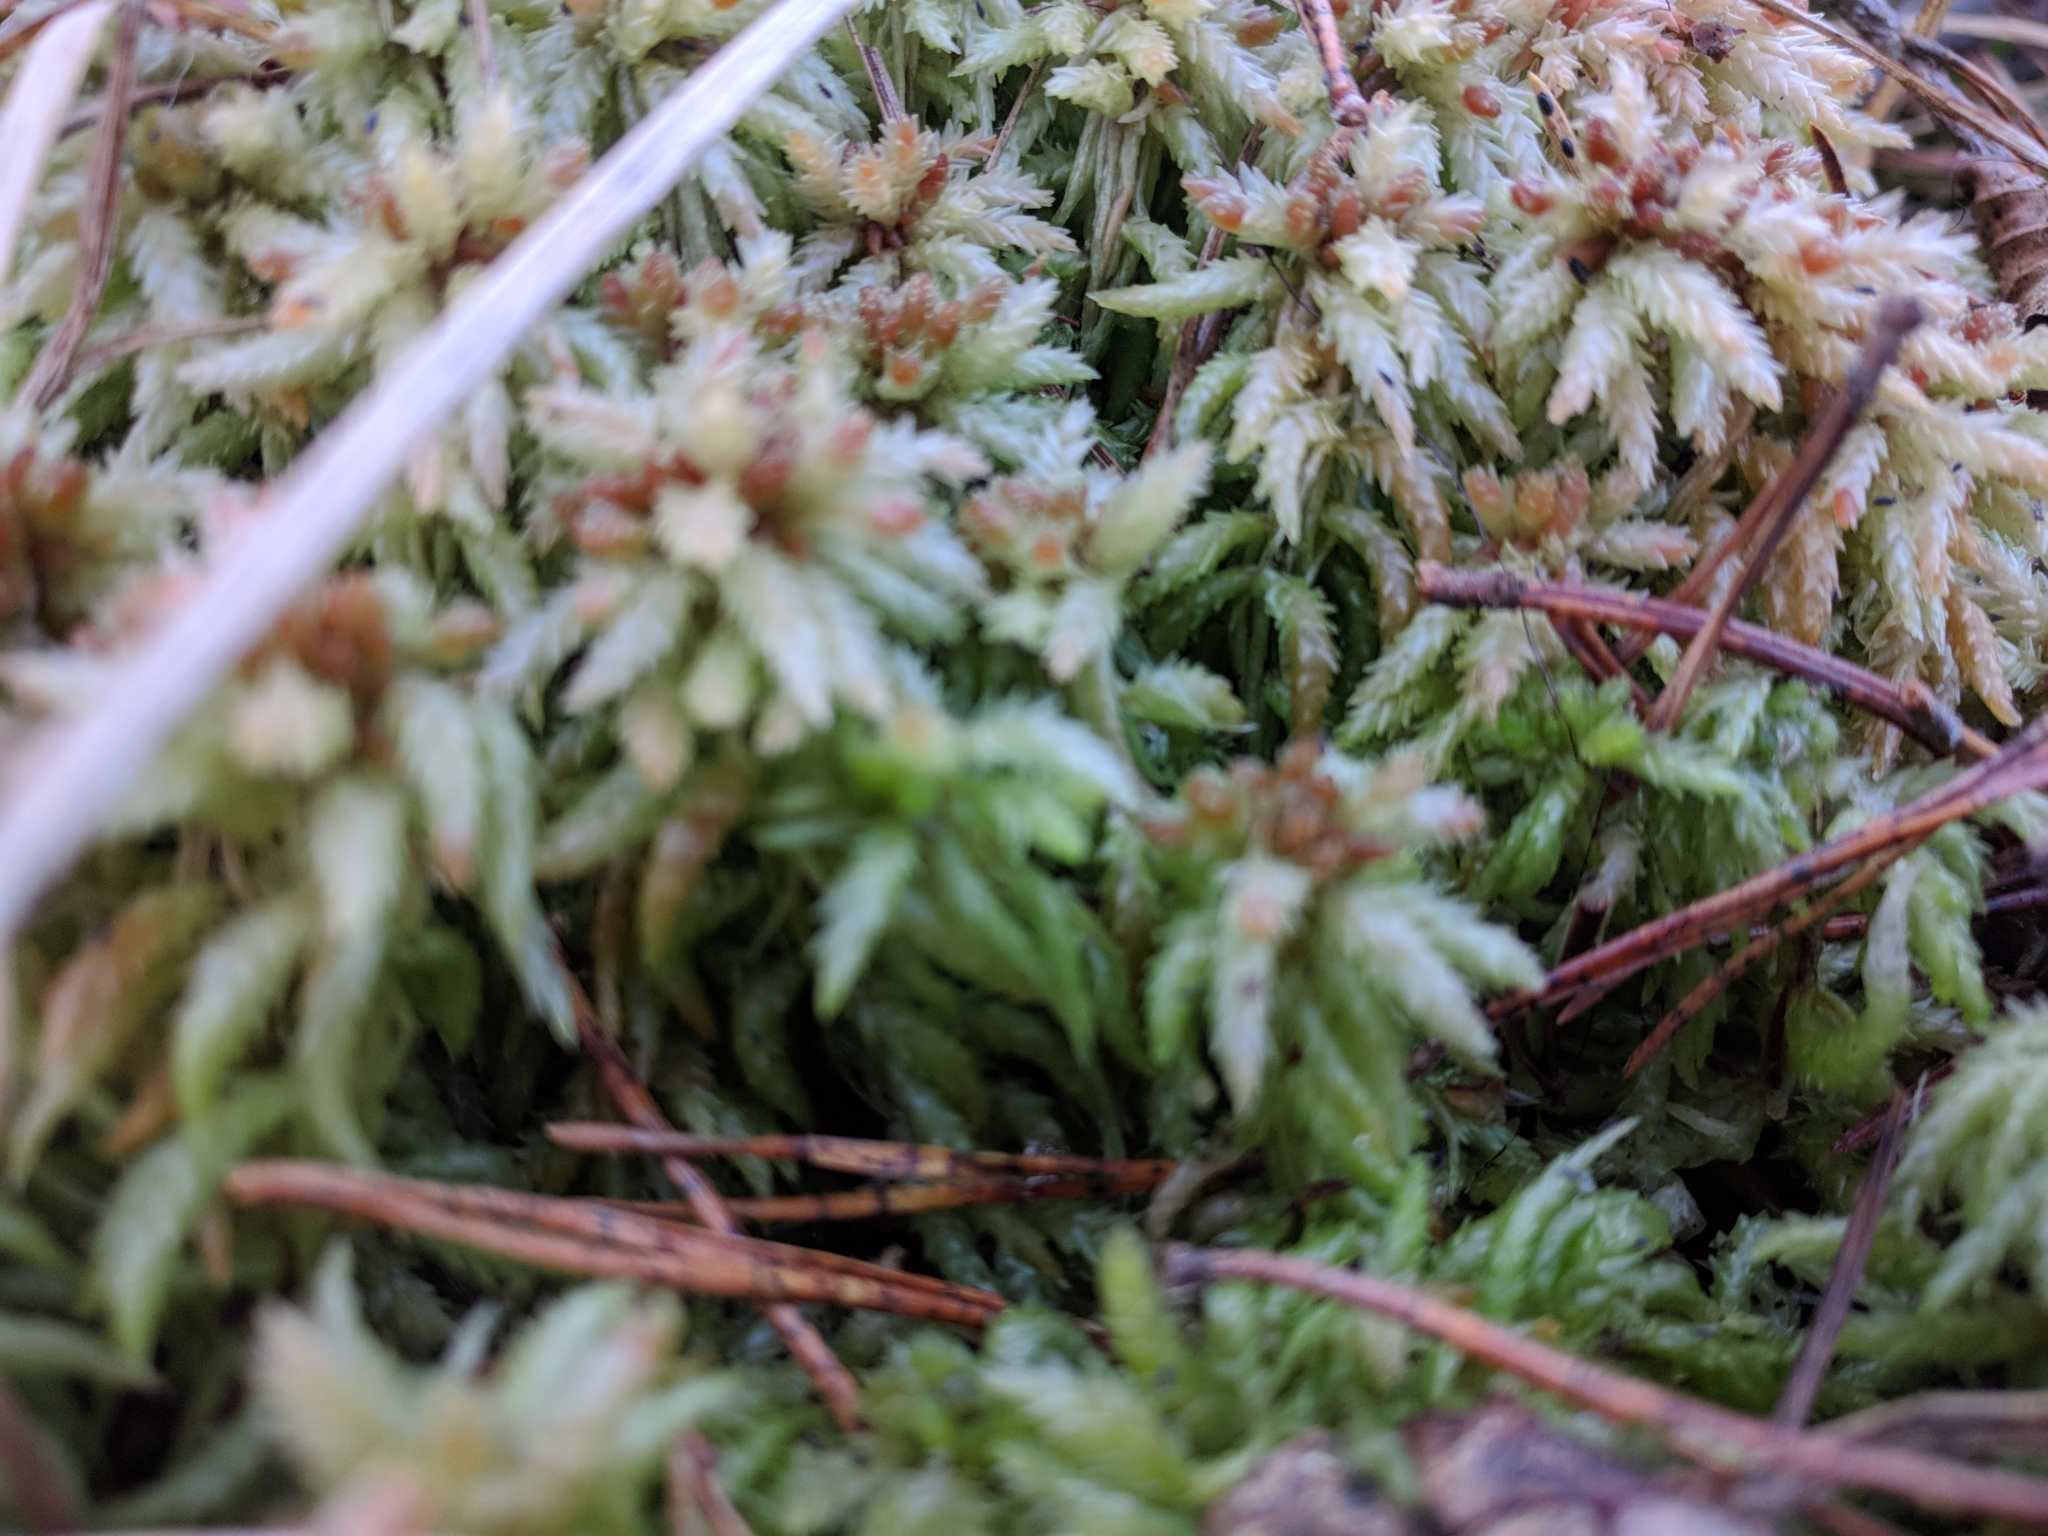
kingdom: Plantae
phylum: Bryophyta
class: Sphagnopsida
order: Sphagnales
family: Sphagnaceae
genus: Sphagnum
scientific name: Sphagnum palustre
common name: Blunt-leaved bog-moss
